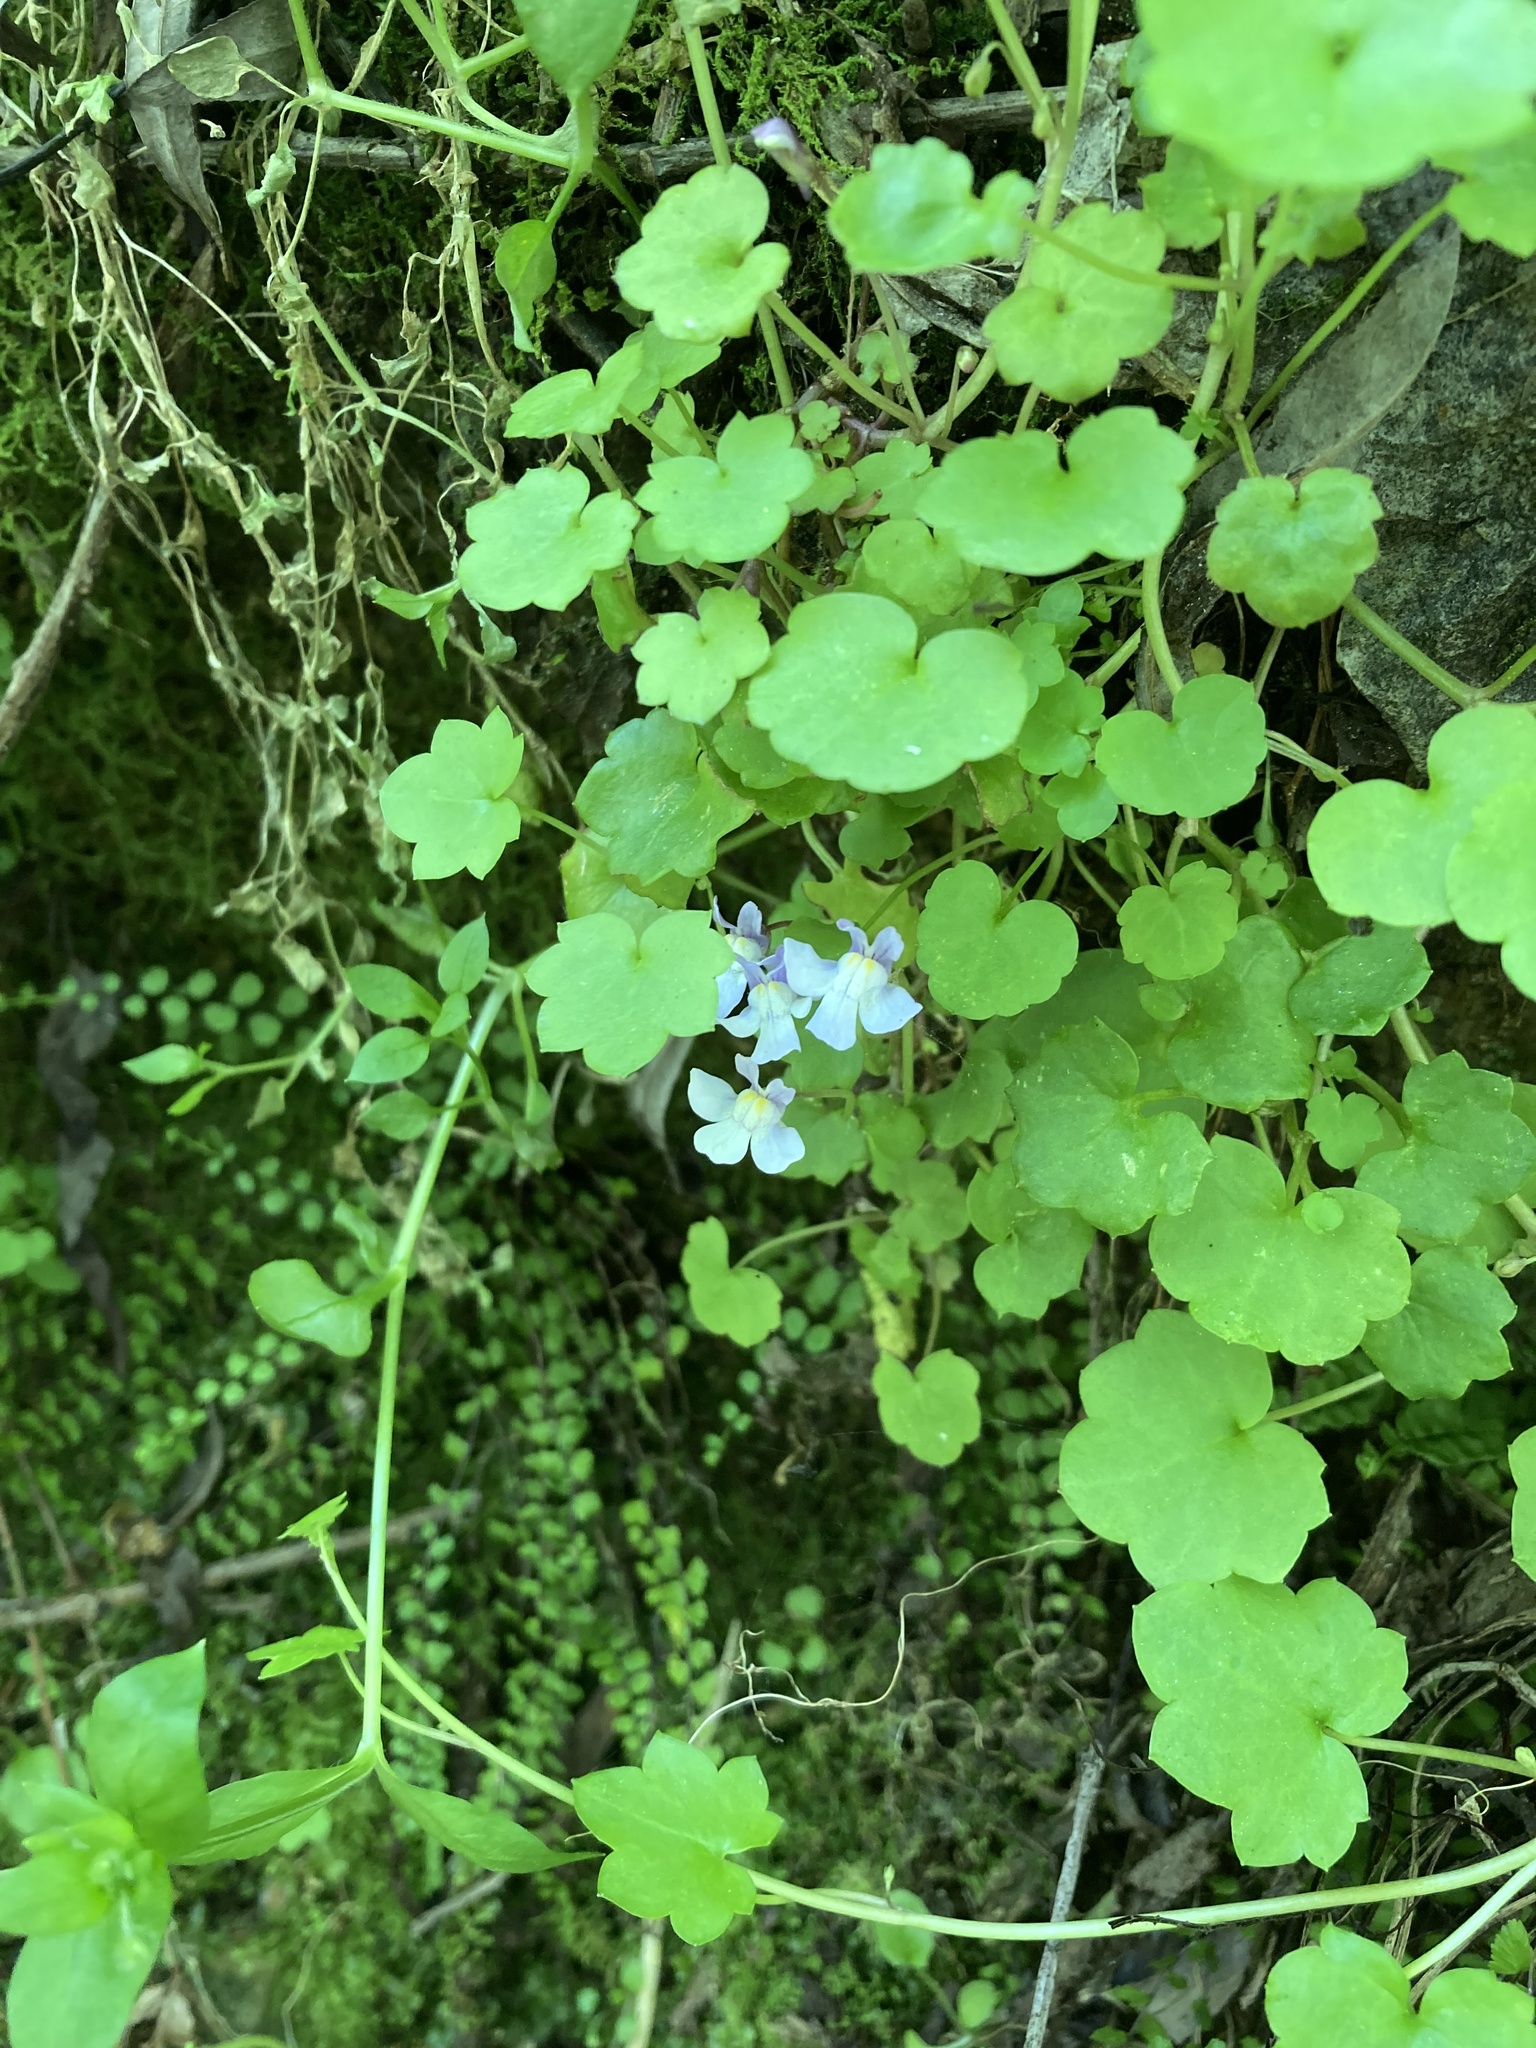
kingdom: Plantae
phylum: Tracheophyta
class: Magnoliopsida
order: Lamiales
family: Plantaginaceae
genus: Cymbalaria
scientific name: Cymbalaria muralis
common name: Ivy-leaved toadflax
